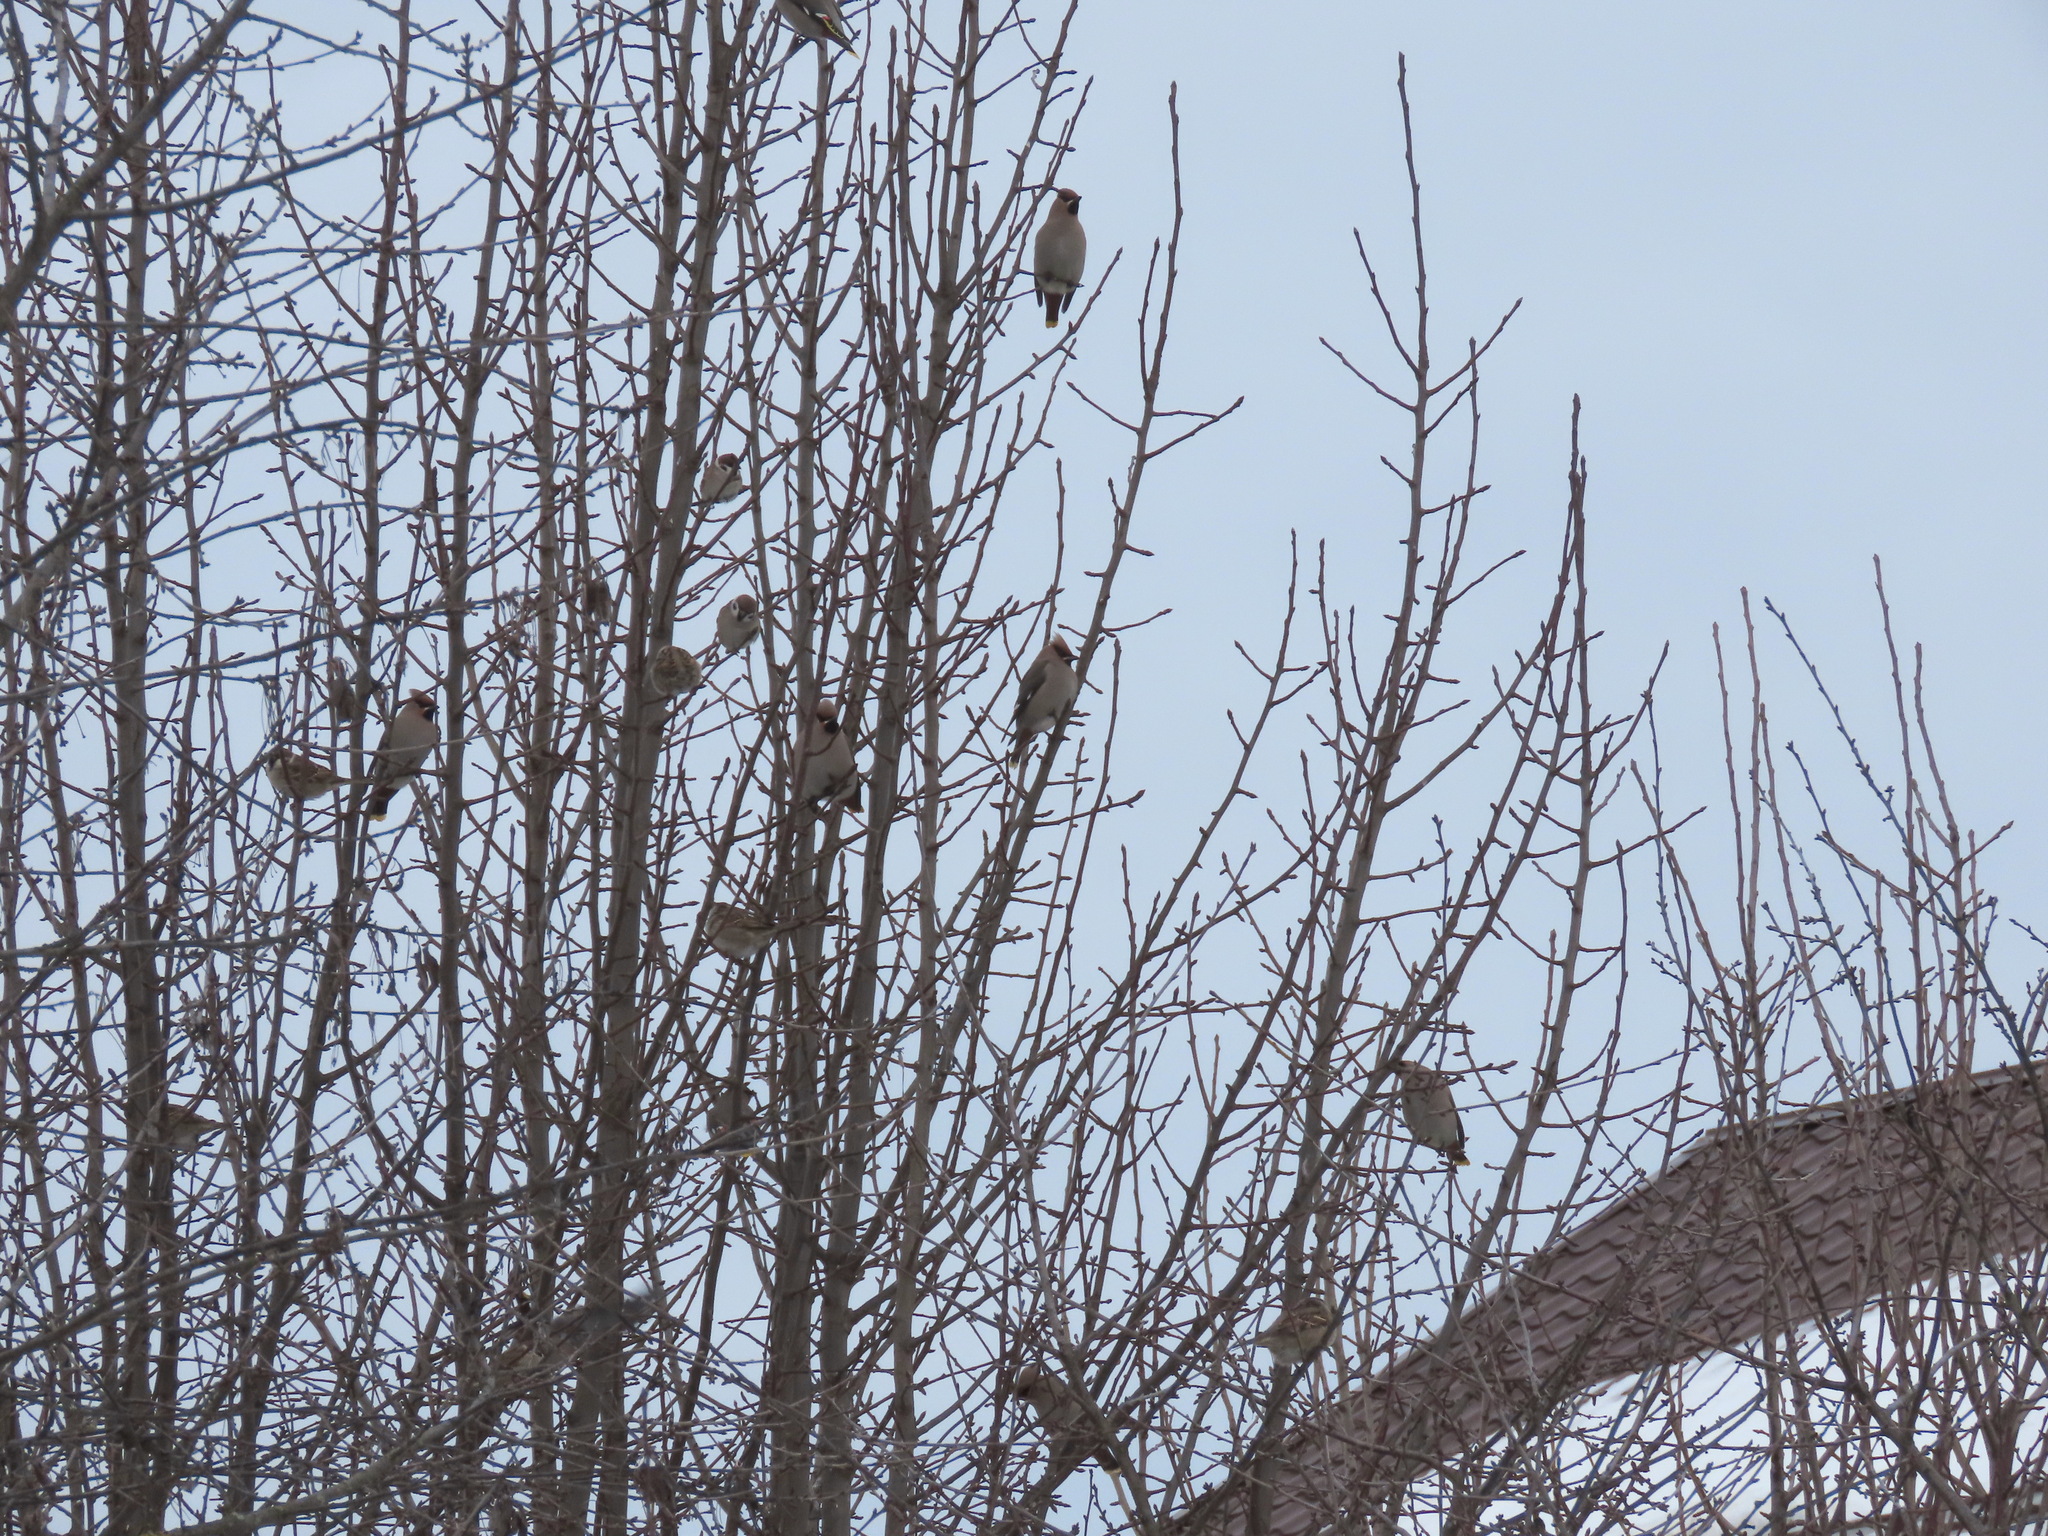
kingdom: Animalia
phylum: Chordata
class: Aves
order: Passeriformes
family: Passeridae
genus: Passer
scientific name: Passer montanus
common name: Eurasian tree sparrow
